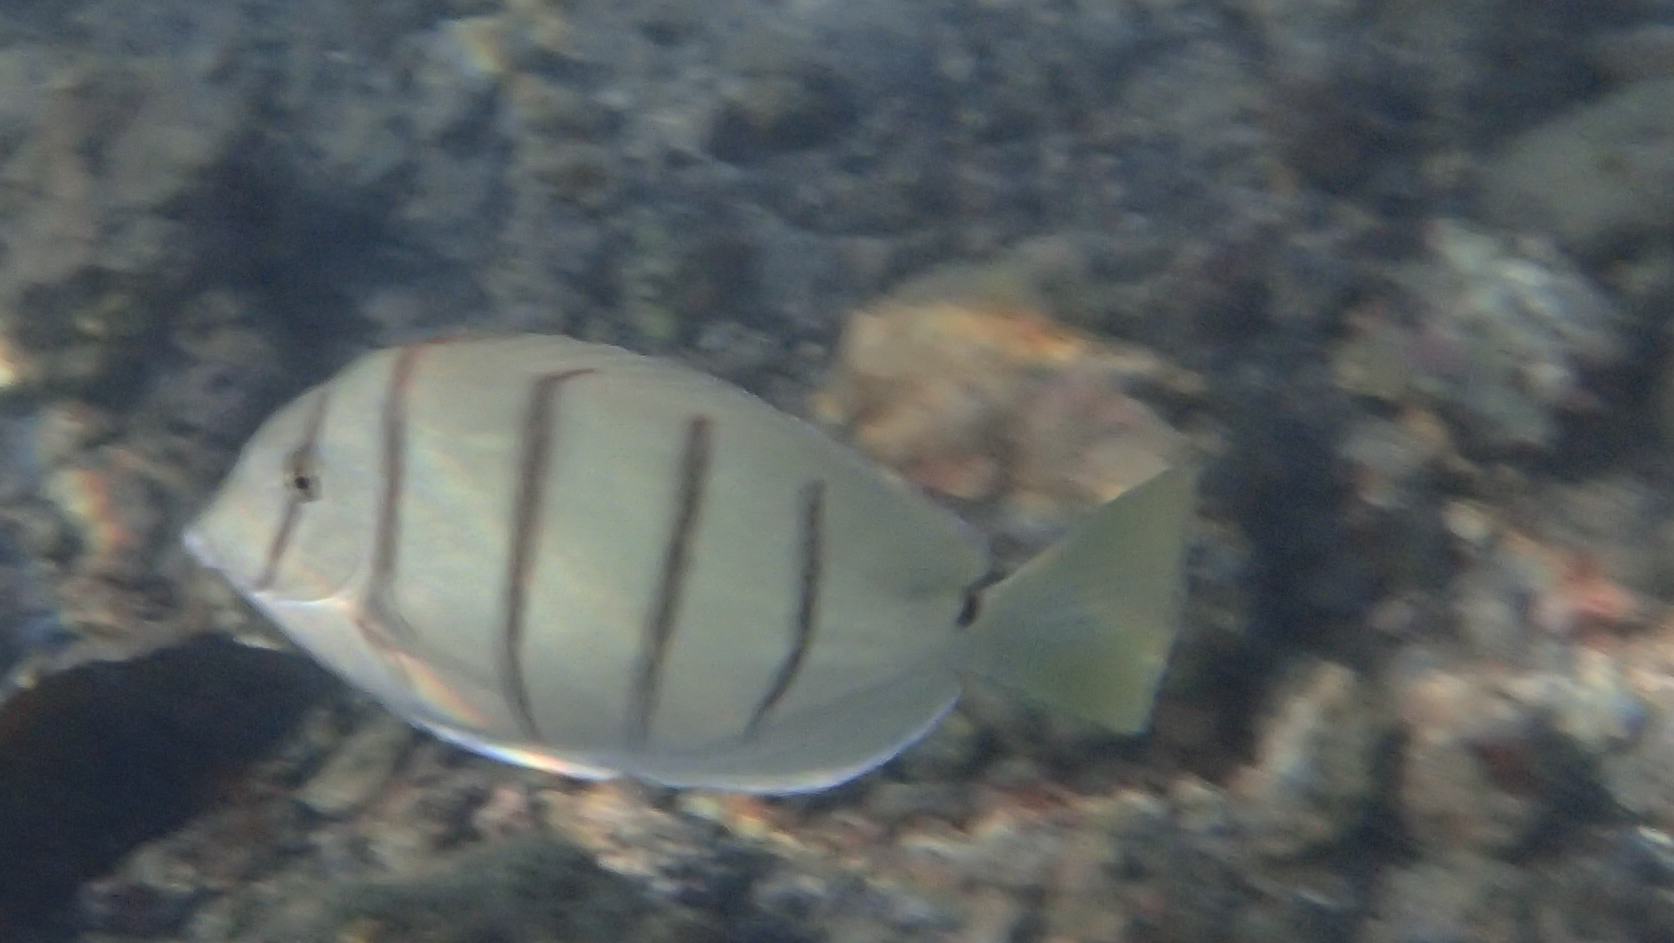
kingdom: Animalia
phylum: Chordata
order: Perciformes
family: Acanthuridae
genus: Acanthurus
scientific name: Acanthurus triostegus
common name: Convict surgeonfish
